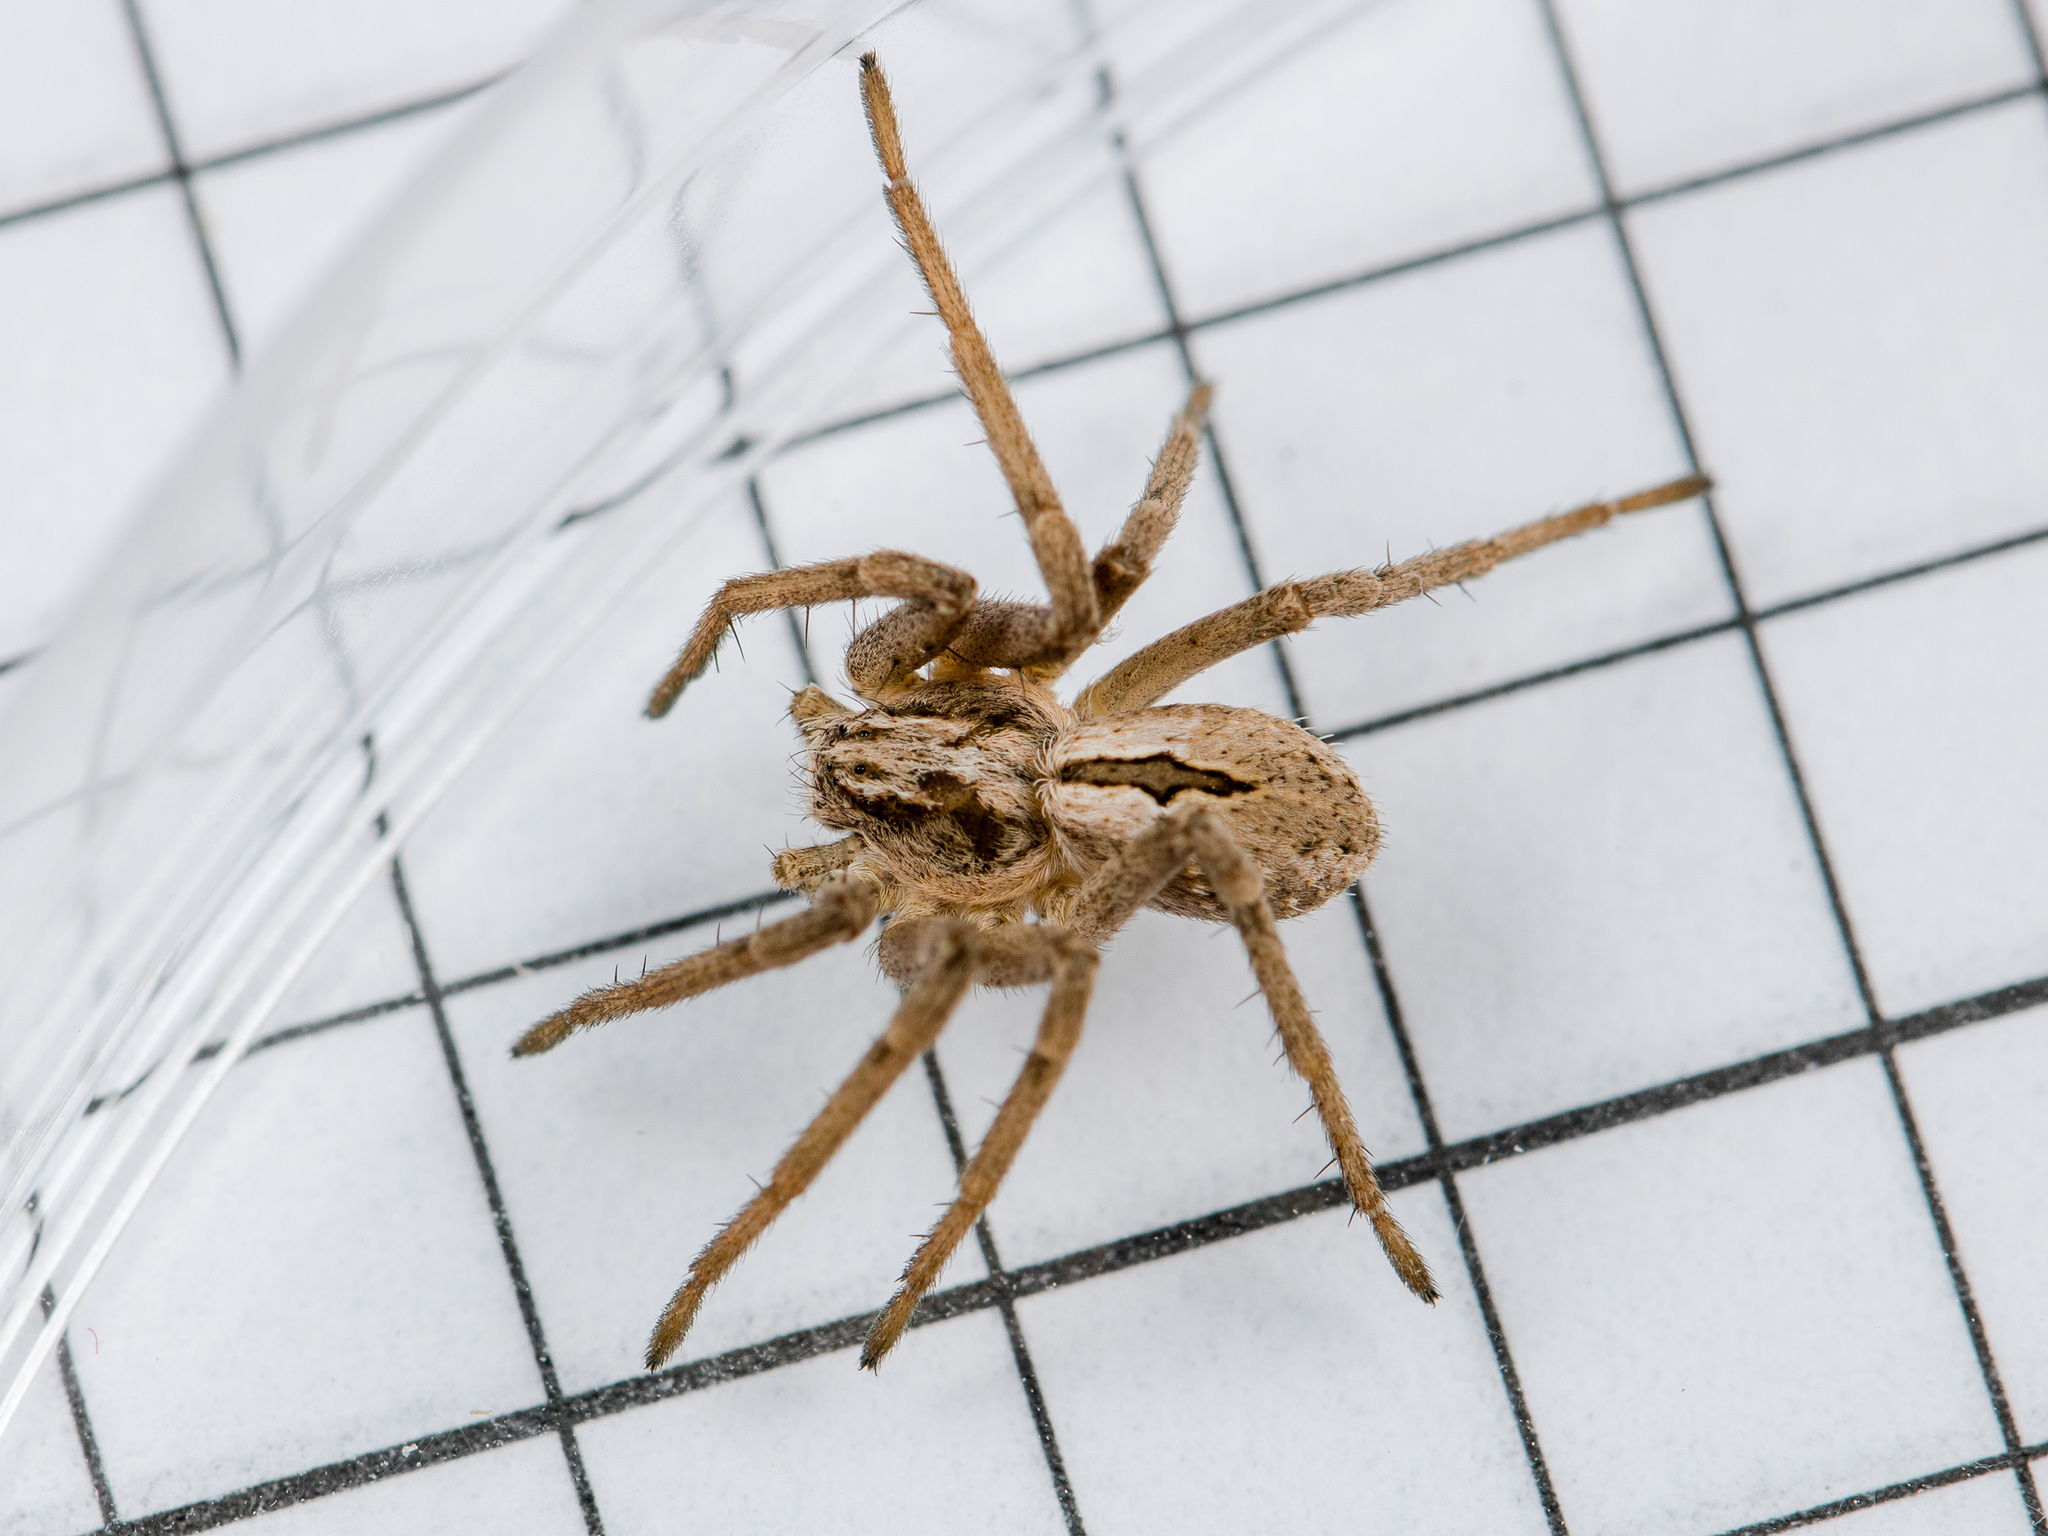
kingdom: Animalia
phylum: Arthropoda
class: Arachnida
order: Araneae
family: Philodromidae
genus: Thanatus
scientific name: Thanatus arcticus
